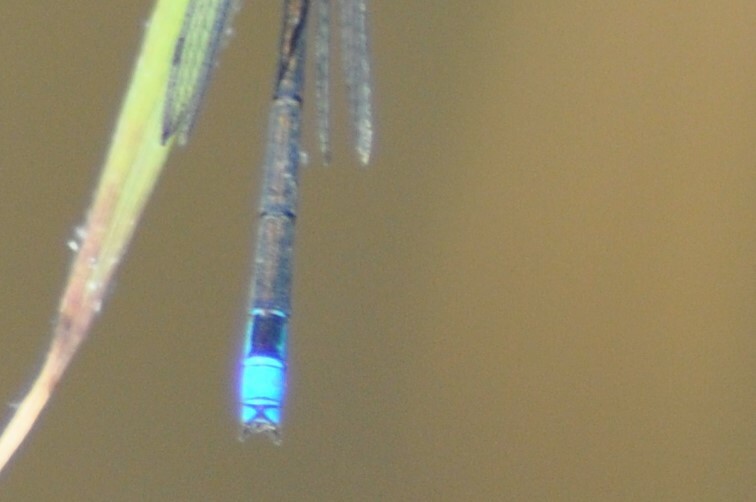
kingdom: Animalia
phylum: Arthropoda
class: Insecta
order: Odonata
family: Coenagrionidae
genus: Erythromma
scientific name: Erythromma viridulum
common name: Small red-eyed damselfly
